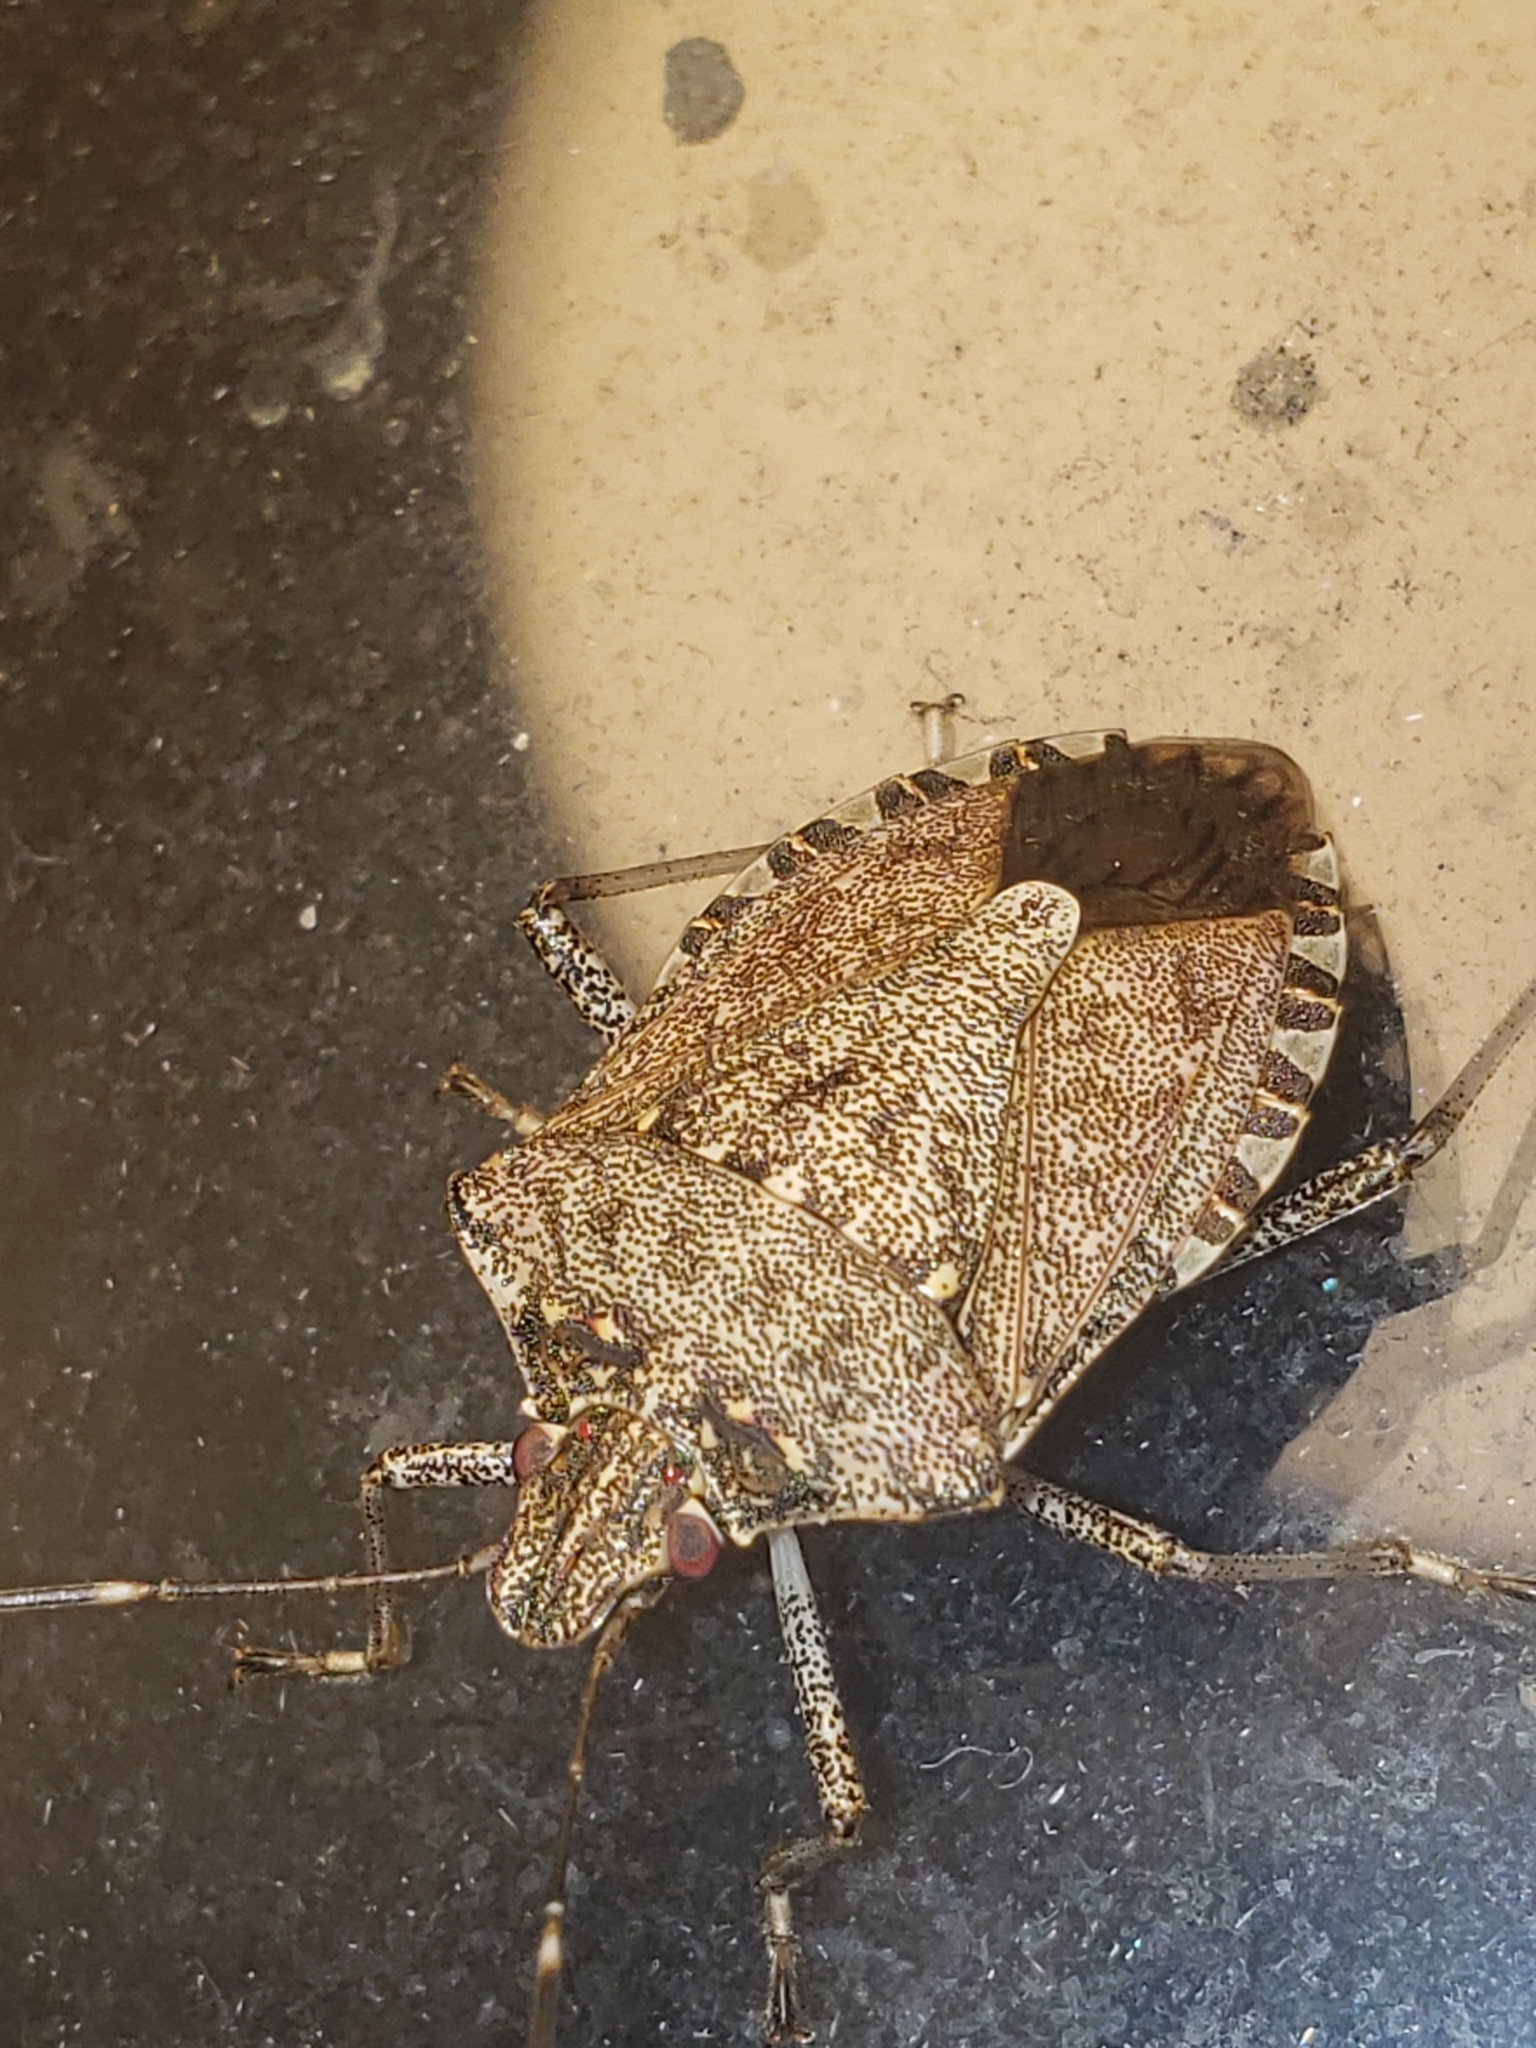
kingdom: Animalia
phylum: Arthropoda
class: Insecta
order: Hemiptera
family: Pentatomidae
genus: Halyomorpha
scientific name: Halyomorpha halys
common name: Brown marmorated stink bug
